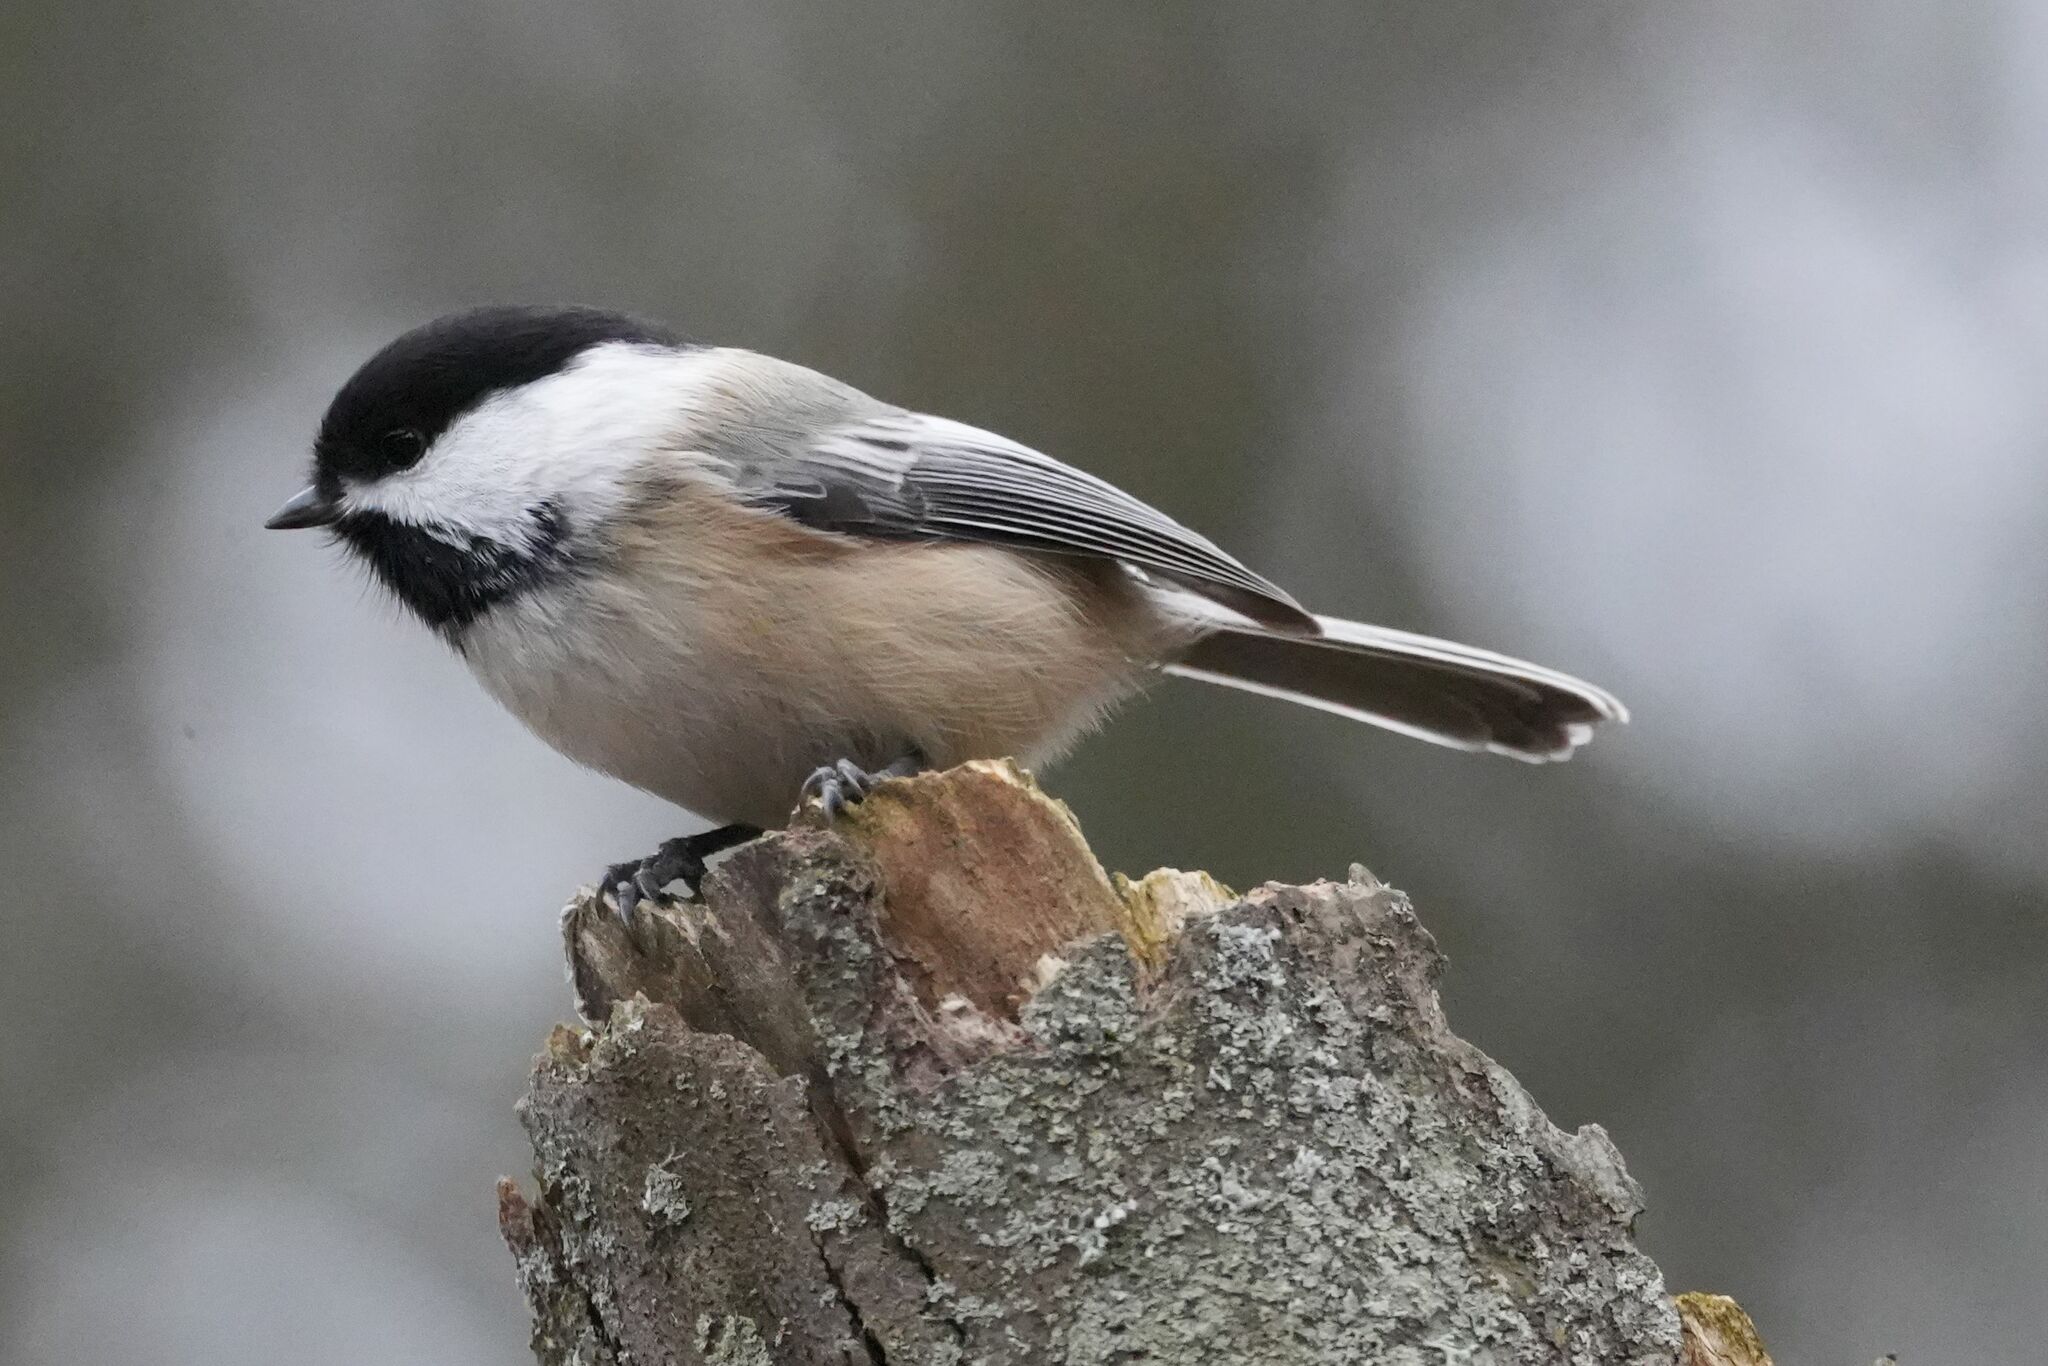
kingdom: Animalia
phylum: Chordata
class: Aves
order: Passeriformes
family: Paridae
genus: Poecile
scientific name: Poecile atricapillus
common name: Black-capped chickadee
